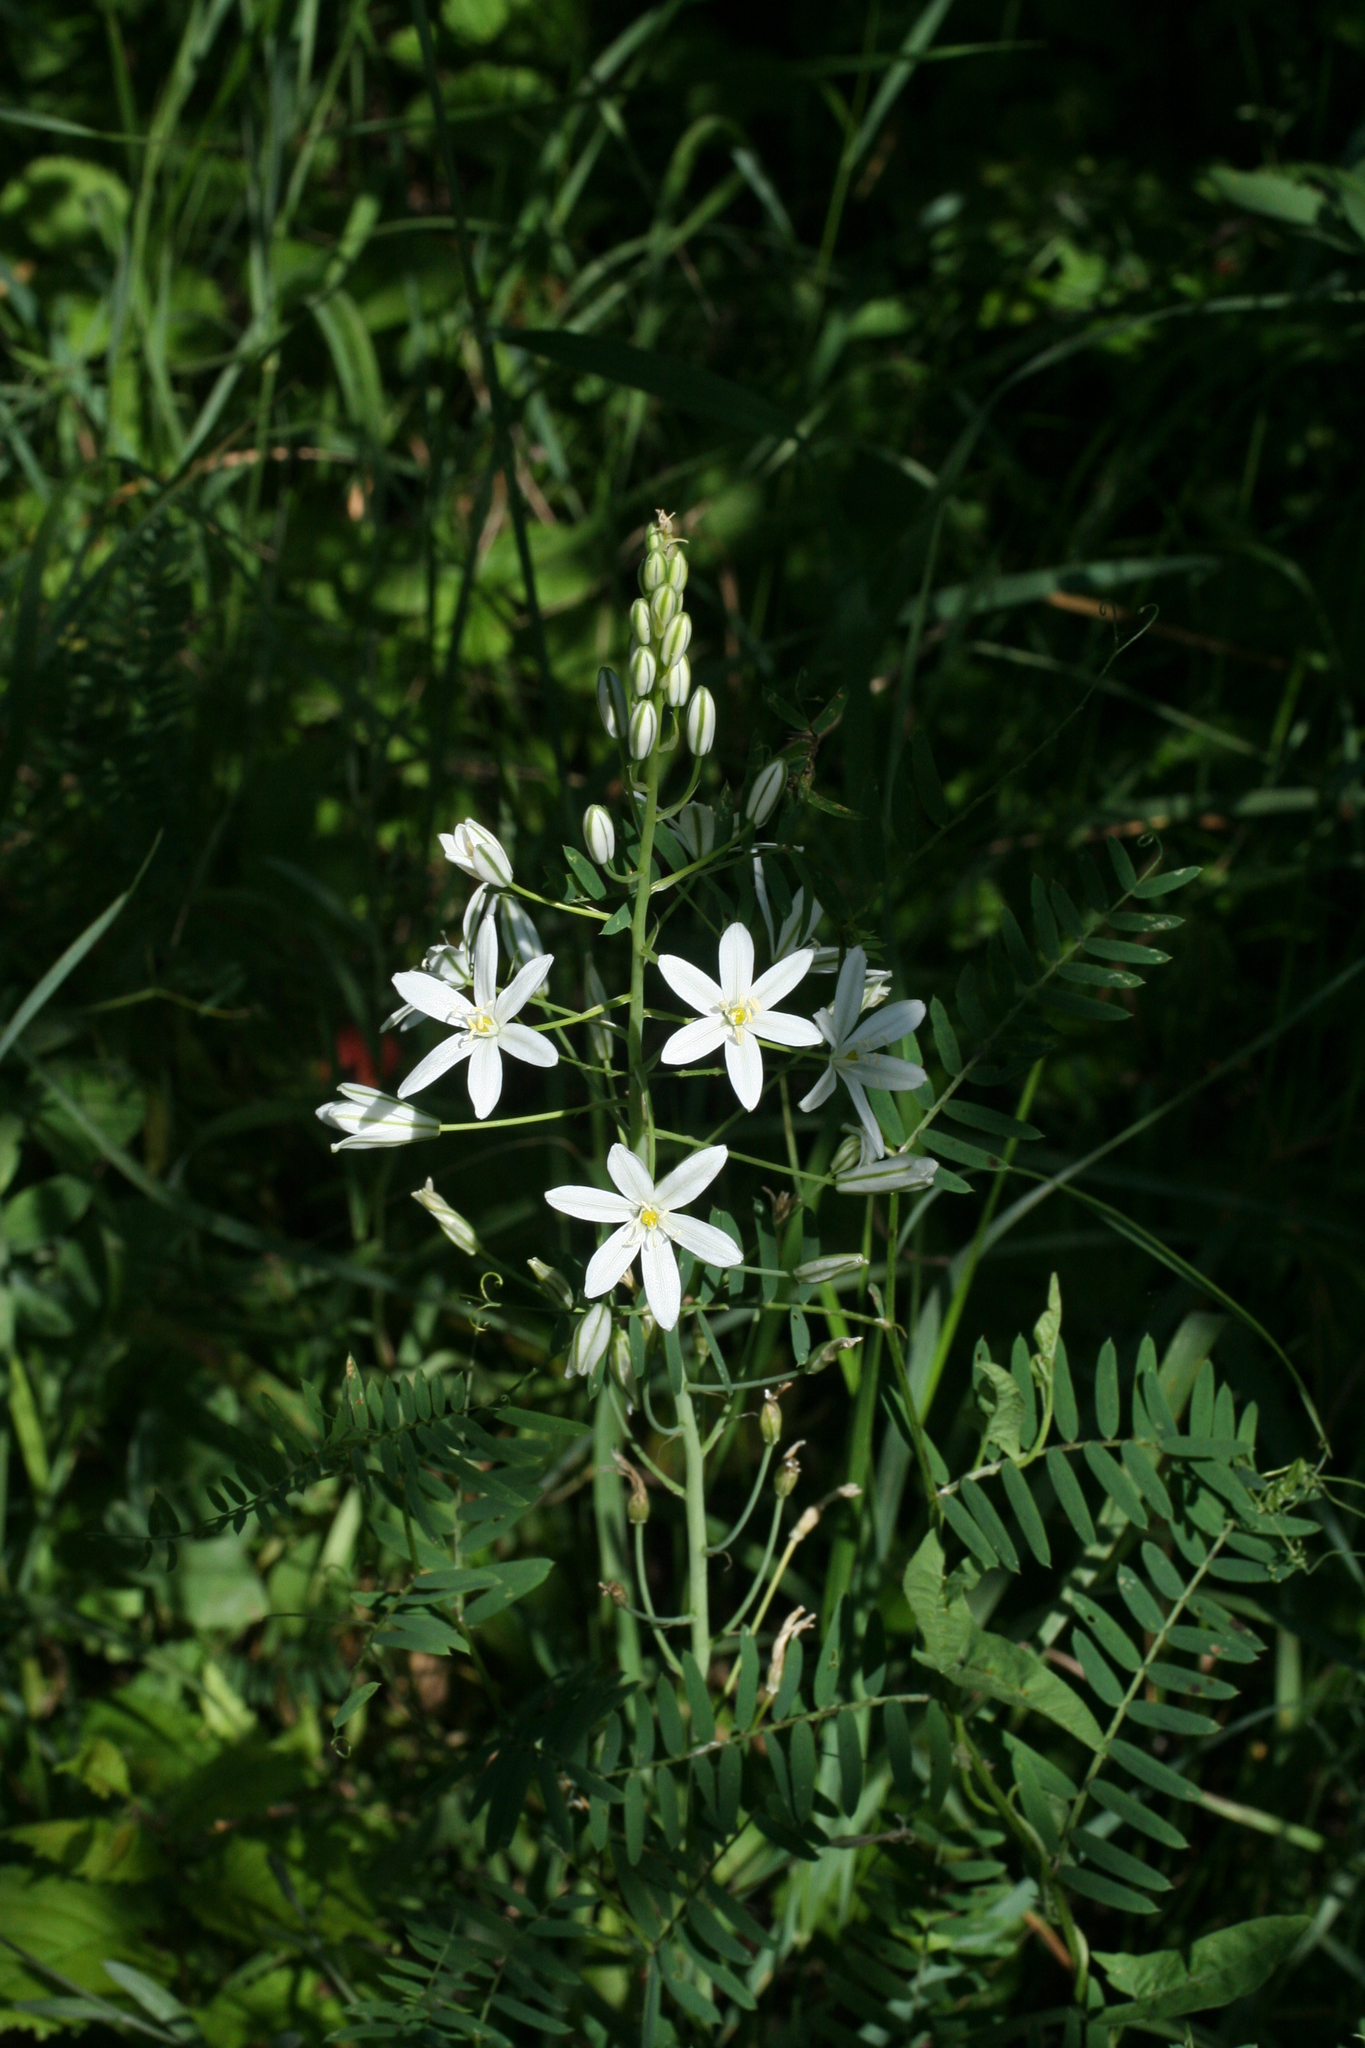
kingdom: Plantae
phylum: Tracheophyta
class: Liliopsida
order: Asparagales
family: Asparagaceae
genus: Ornithogalum
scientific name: Ornithogalum ponticum
